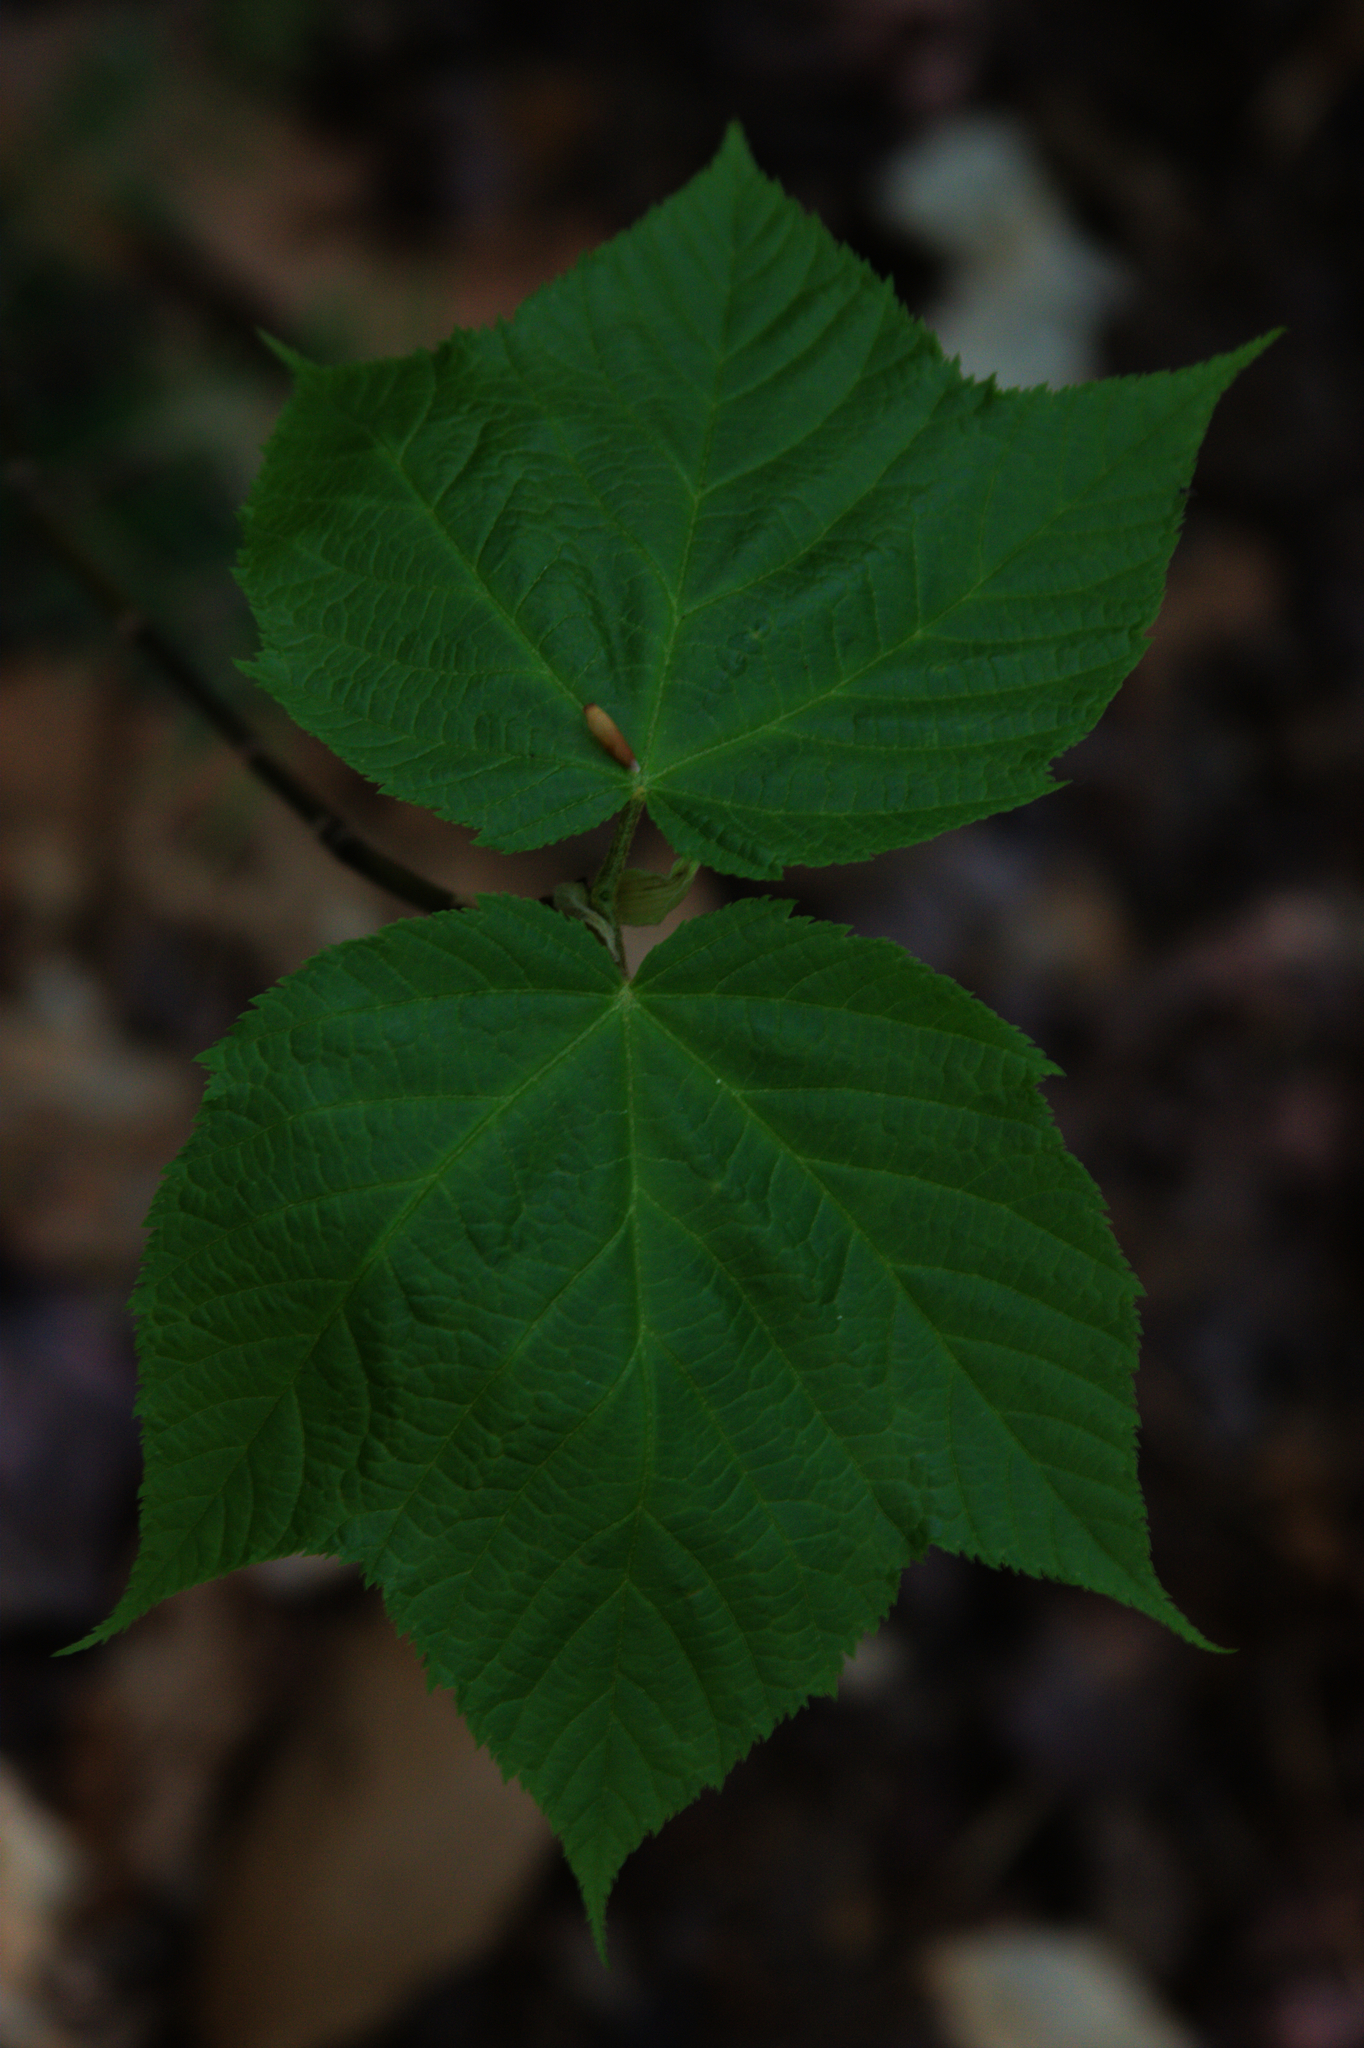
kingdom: Plantae
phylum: Tracheophyta
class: Magnoliopsida
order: Sapindales
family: Sapindaceae
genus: Acer
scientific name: Acer pensylvanicum
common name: Moosewood
